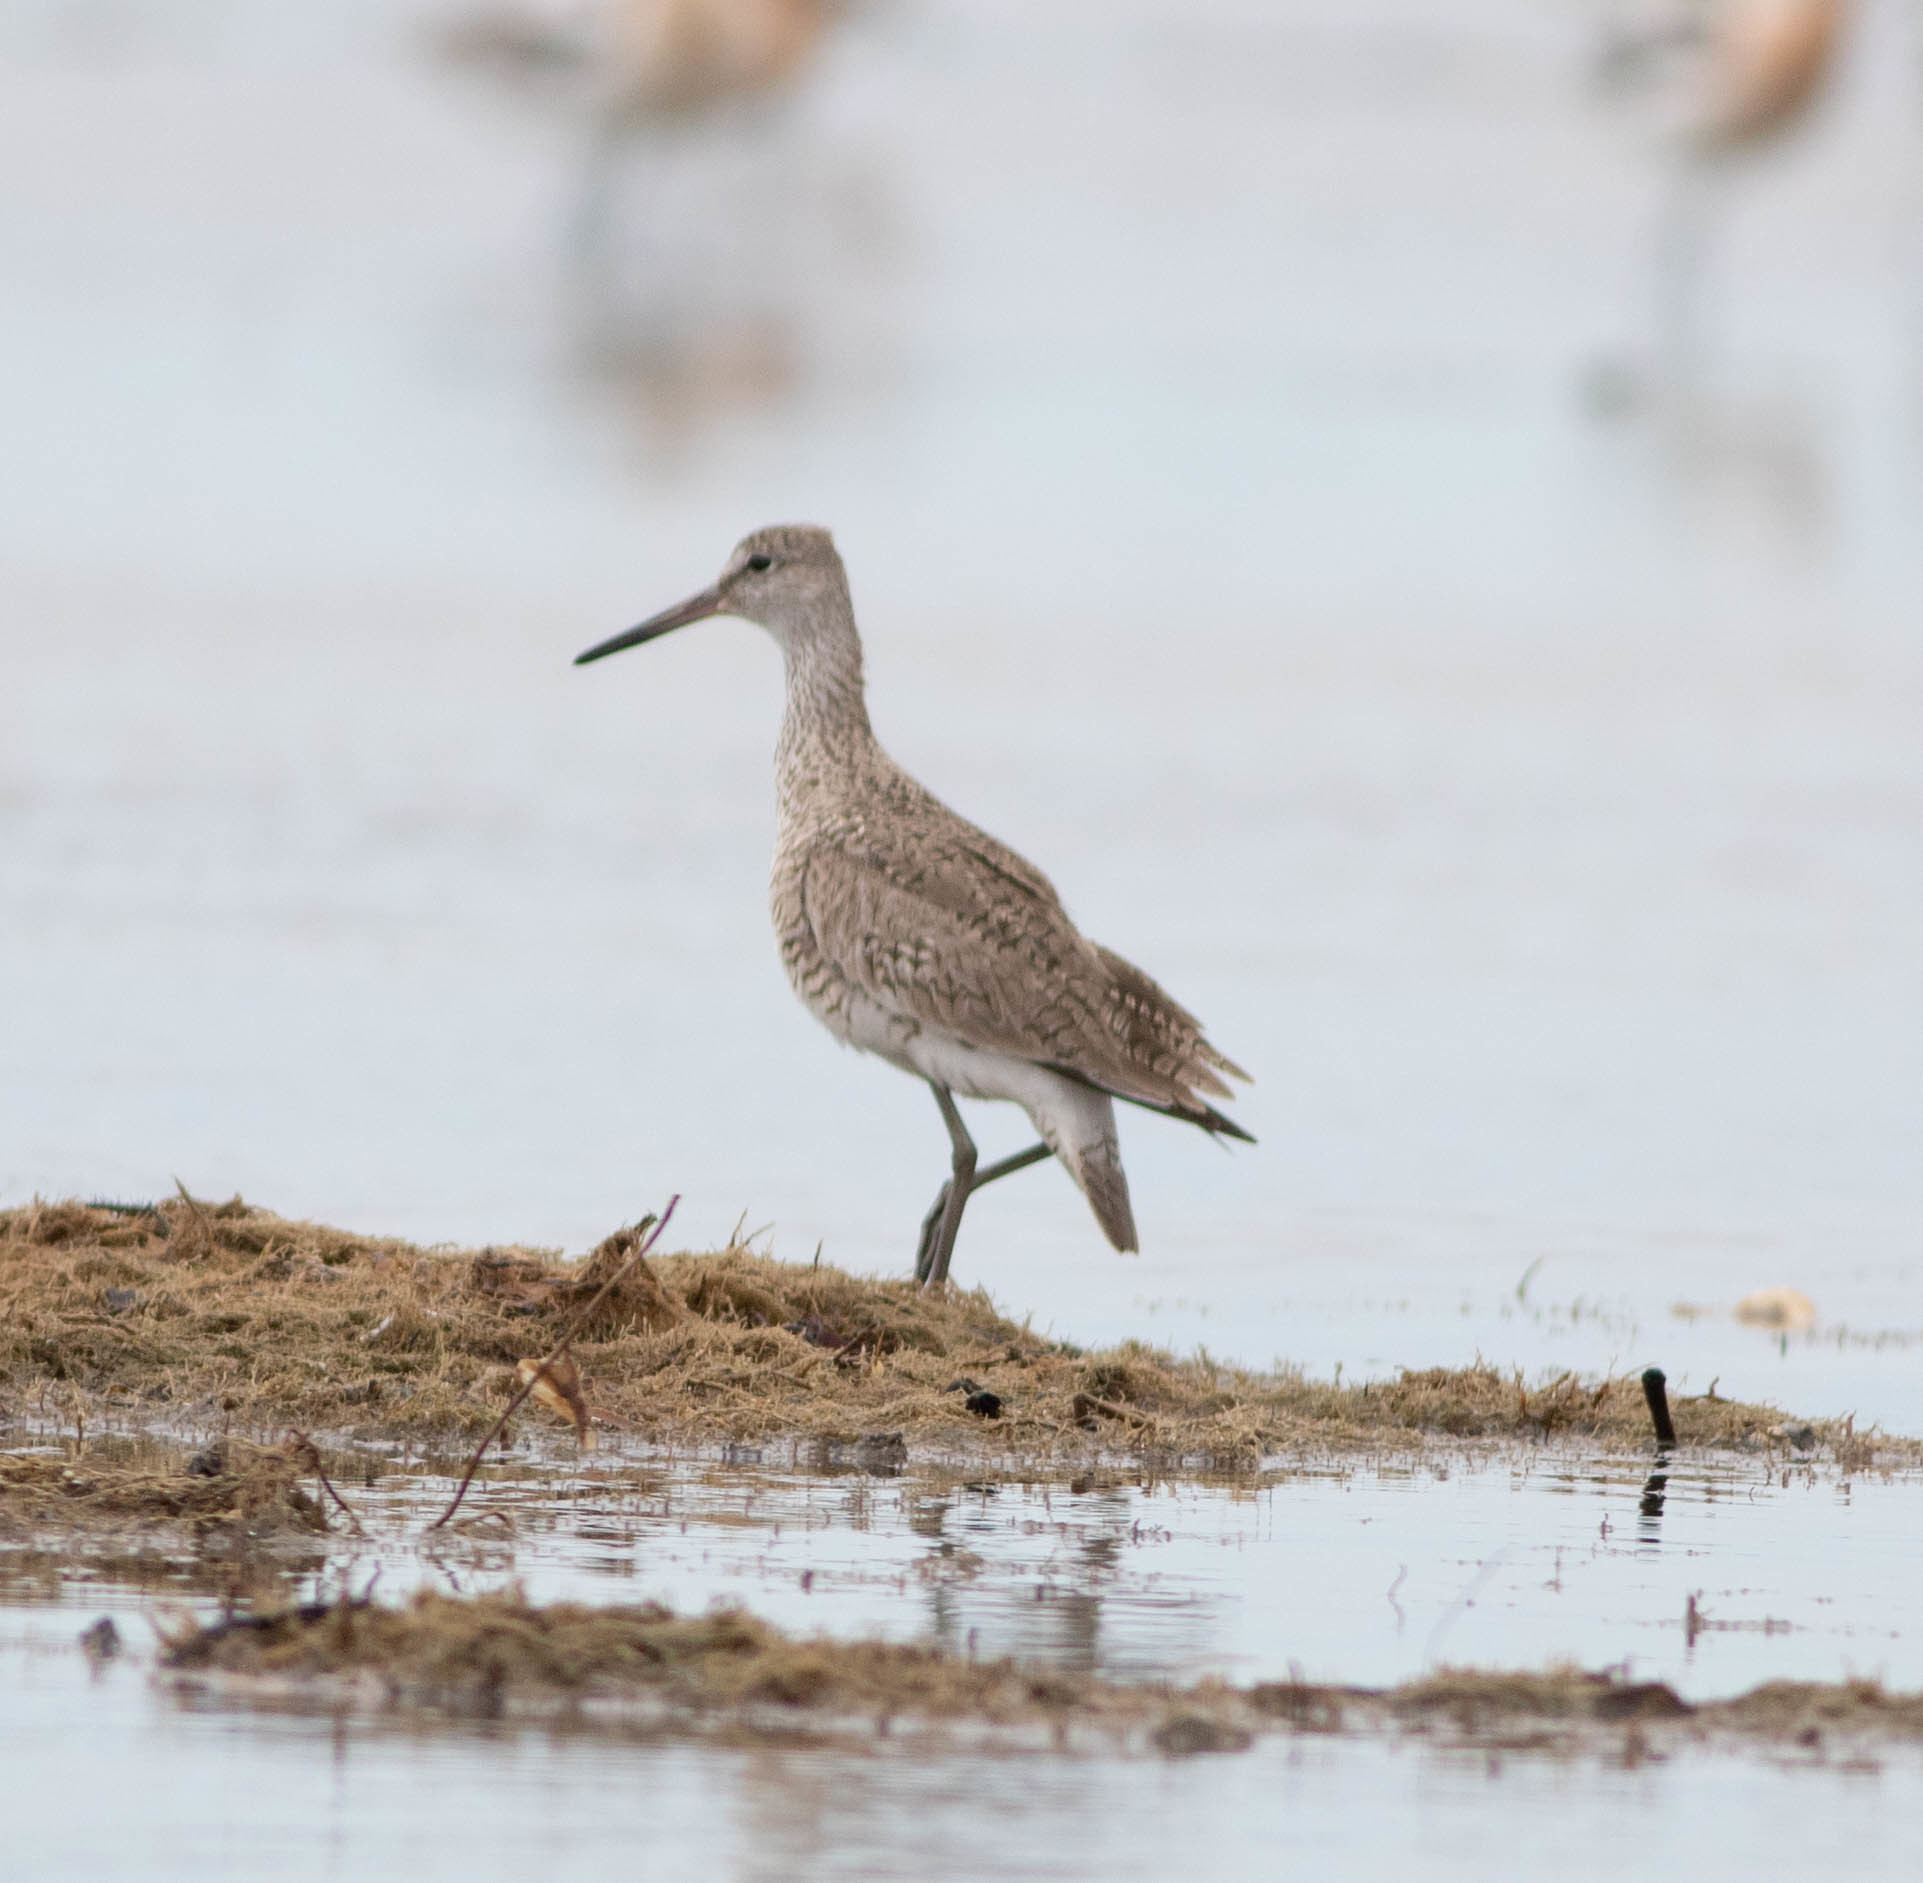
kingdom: Animalia
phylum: Chordata
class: Aves
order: Charadriiformes
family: Scolopacidae
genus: Tringa
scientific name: Tringa semipalmata
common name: Willet
